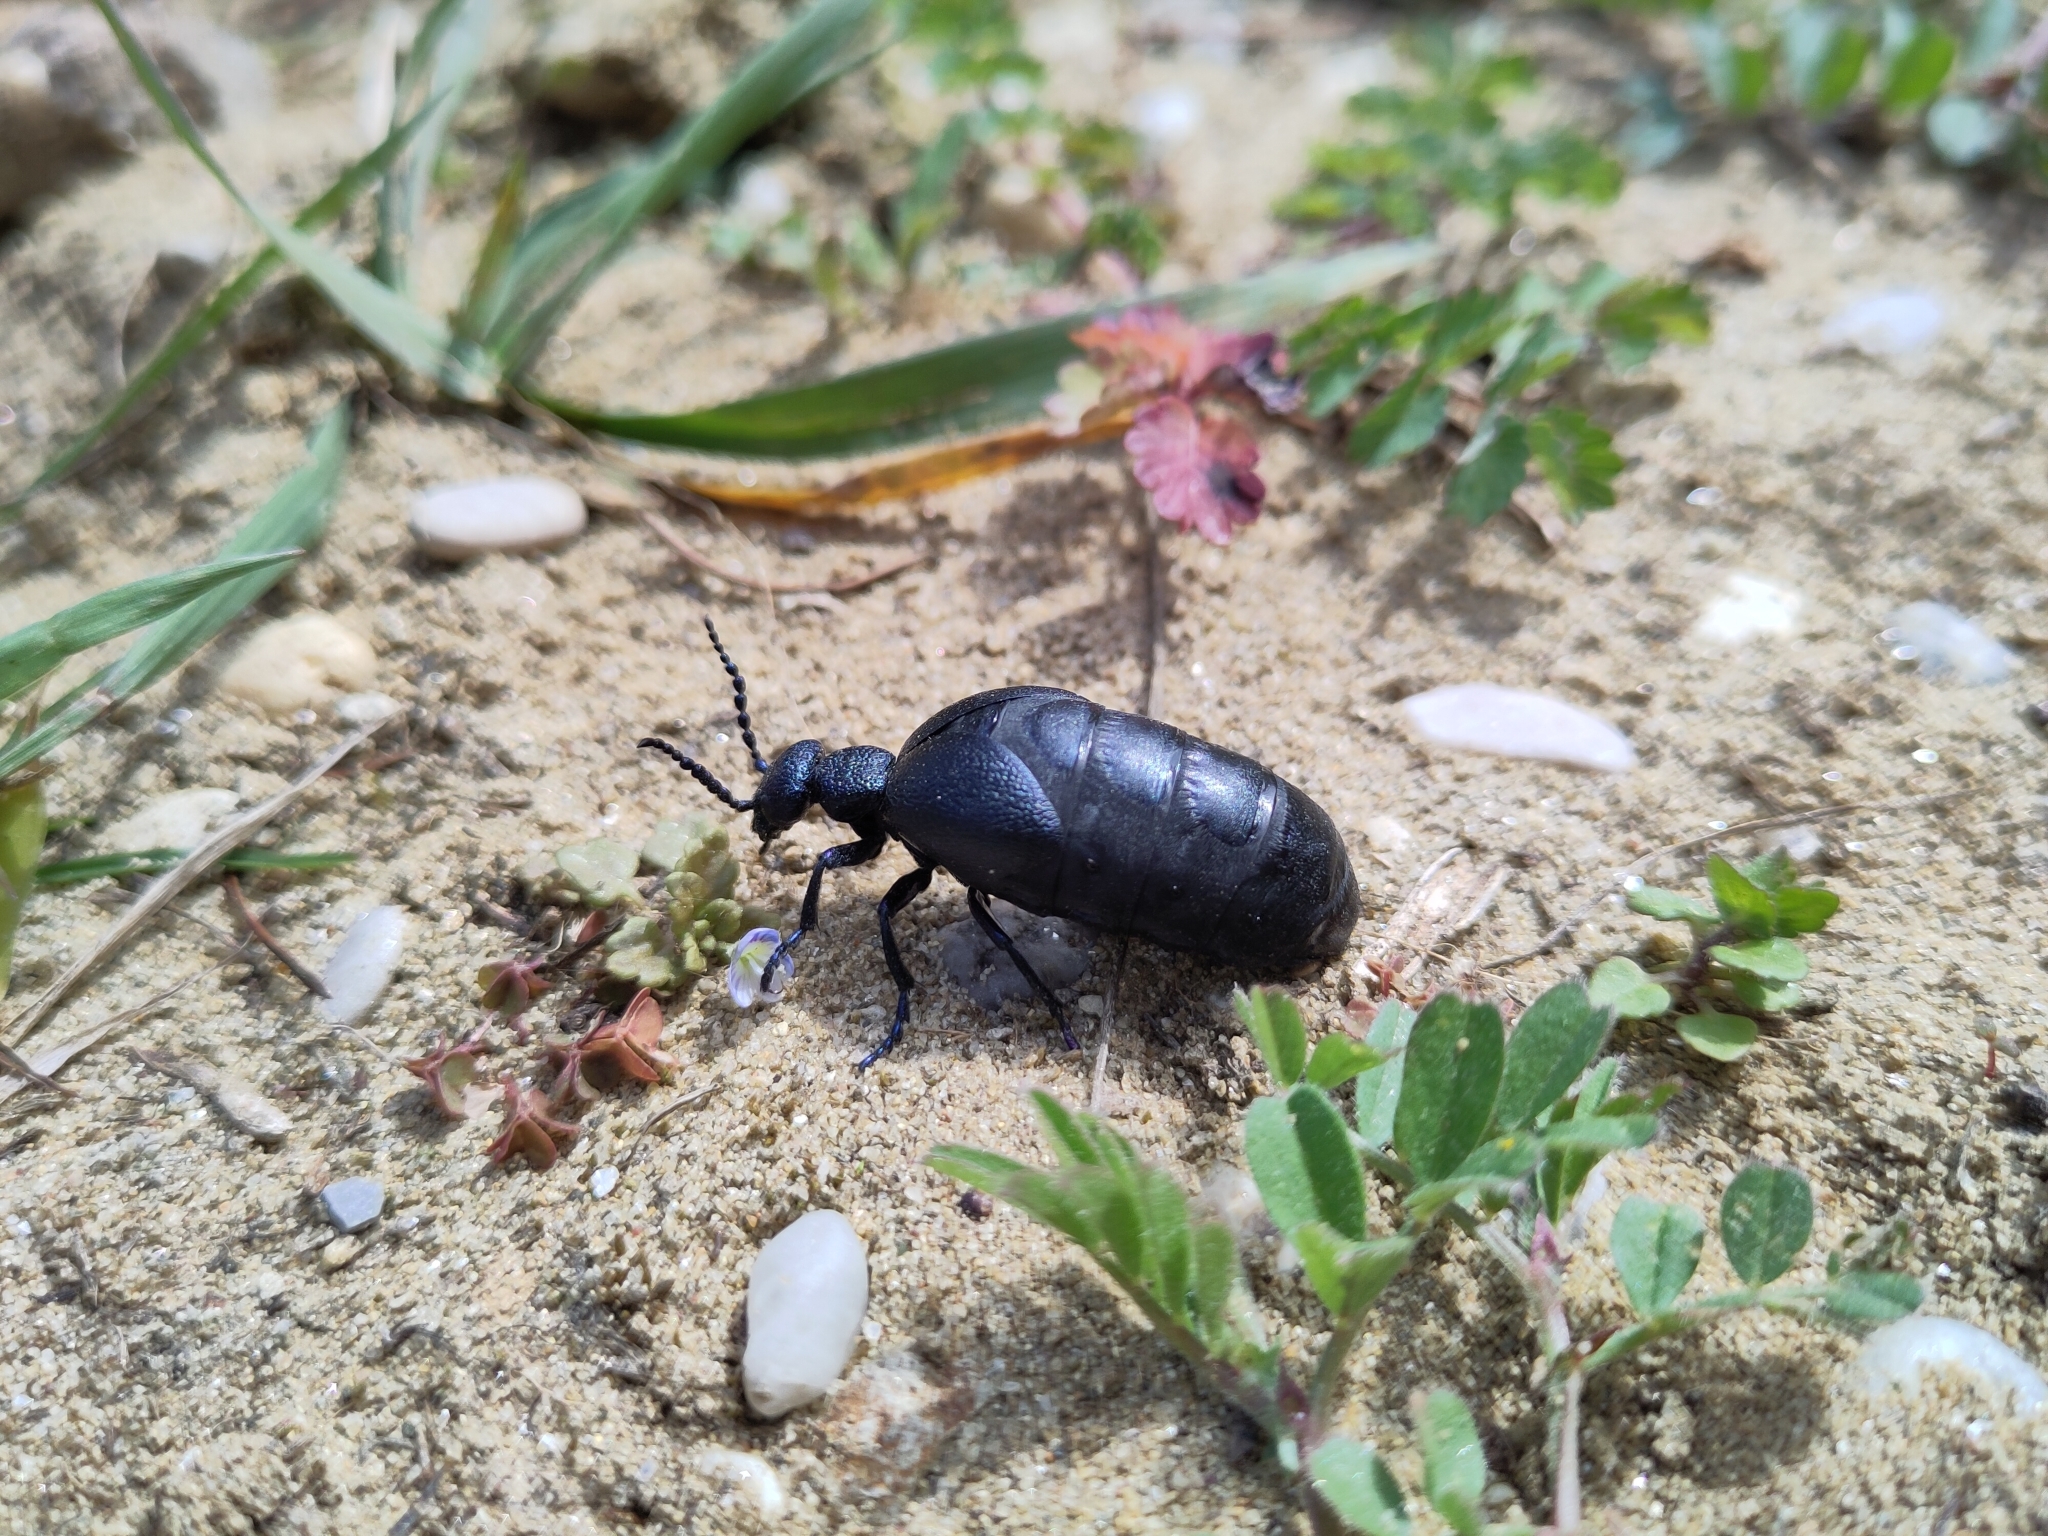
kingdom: Animalia
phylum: Arthropoda
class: Insecta
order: Coleoptera
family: Meloidae
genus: Meloe
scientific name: Meloe proscarabaeus
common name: Black oil-beetle
